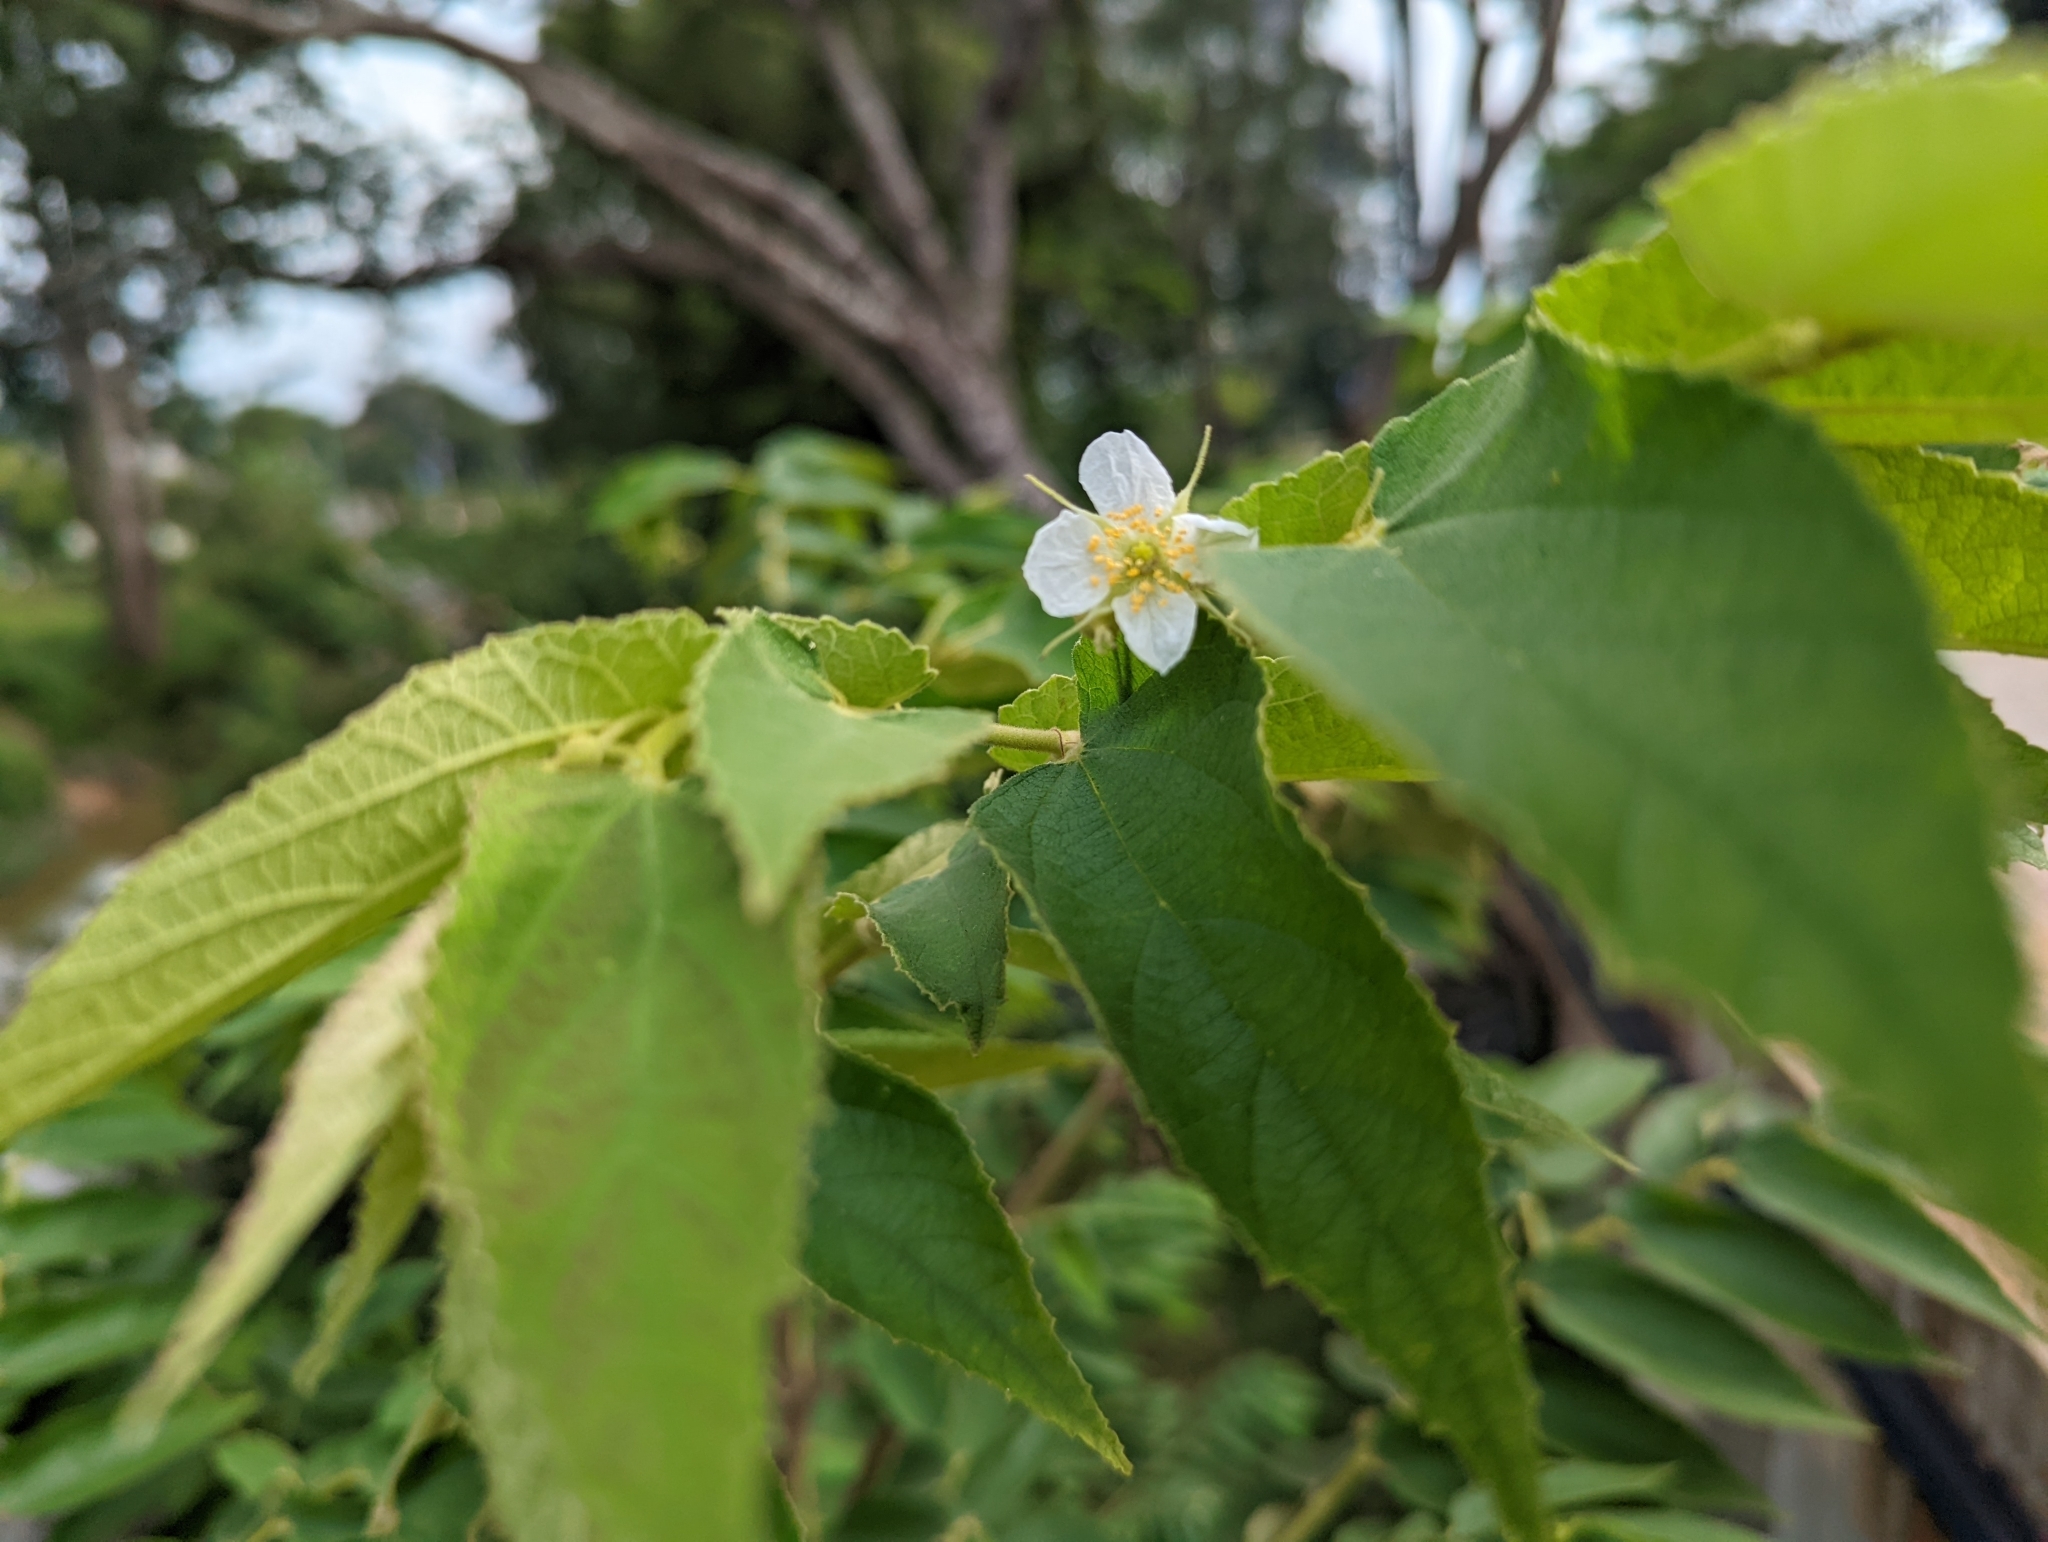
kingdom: Plantae
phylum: Tracheophyta
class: Magnoliopsida
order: Malvales
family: Muntingiaceae
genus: Muntingia
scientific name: Muntingia calabura
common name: Strawberrytree
